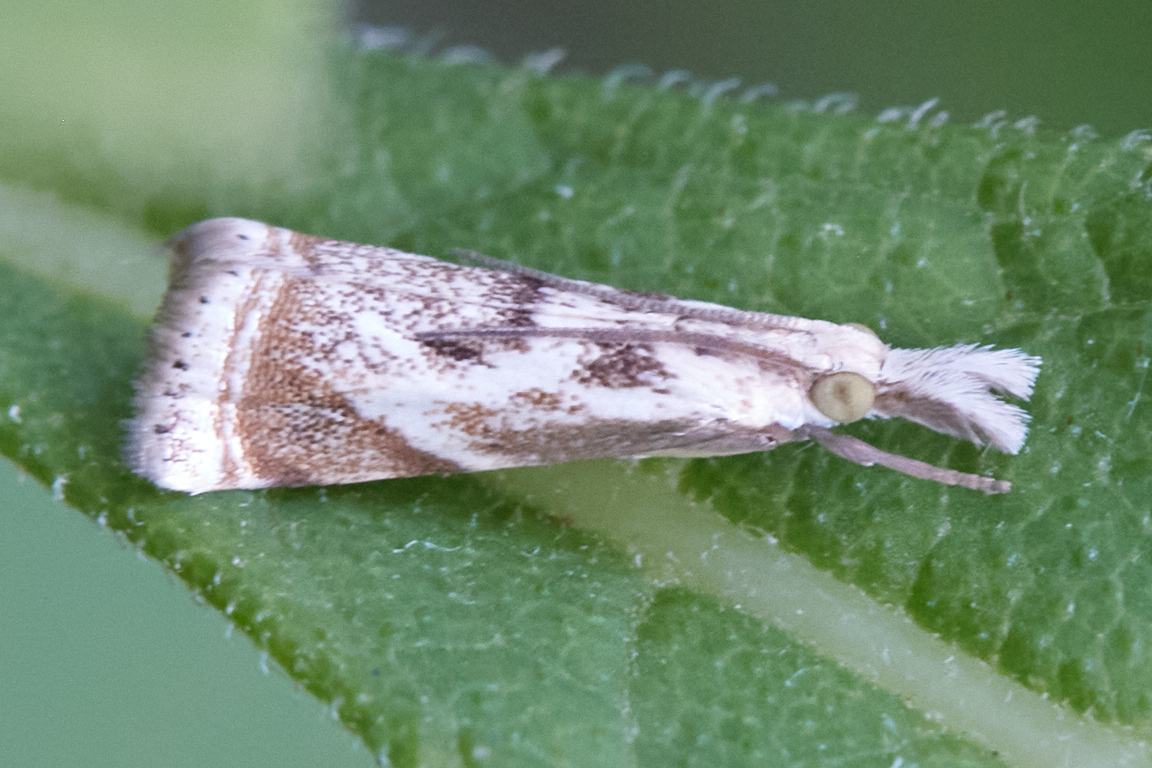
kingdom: Animalia
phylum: Arthropoda
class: Insecta
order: Lepidoptera
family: Crambidae
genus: Microcrambus
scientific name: Microcrambus elegans
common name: Elegant grass-veneer
